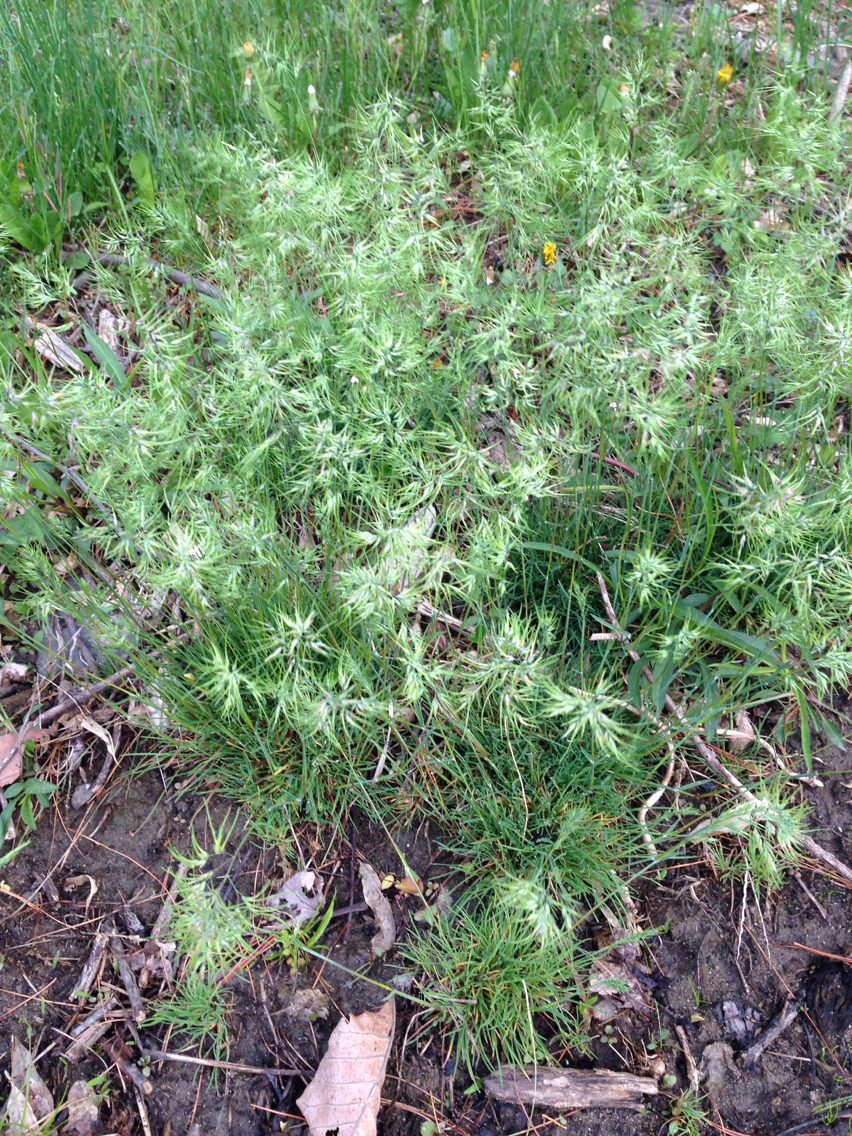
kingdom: Plantae
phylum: Tracheophyta
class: Liliopsida
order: Poales
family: Poaceae
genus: Poa
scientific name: Poa bulbosa
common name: Bulbous bluegrass
